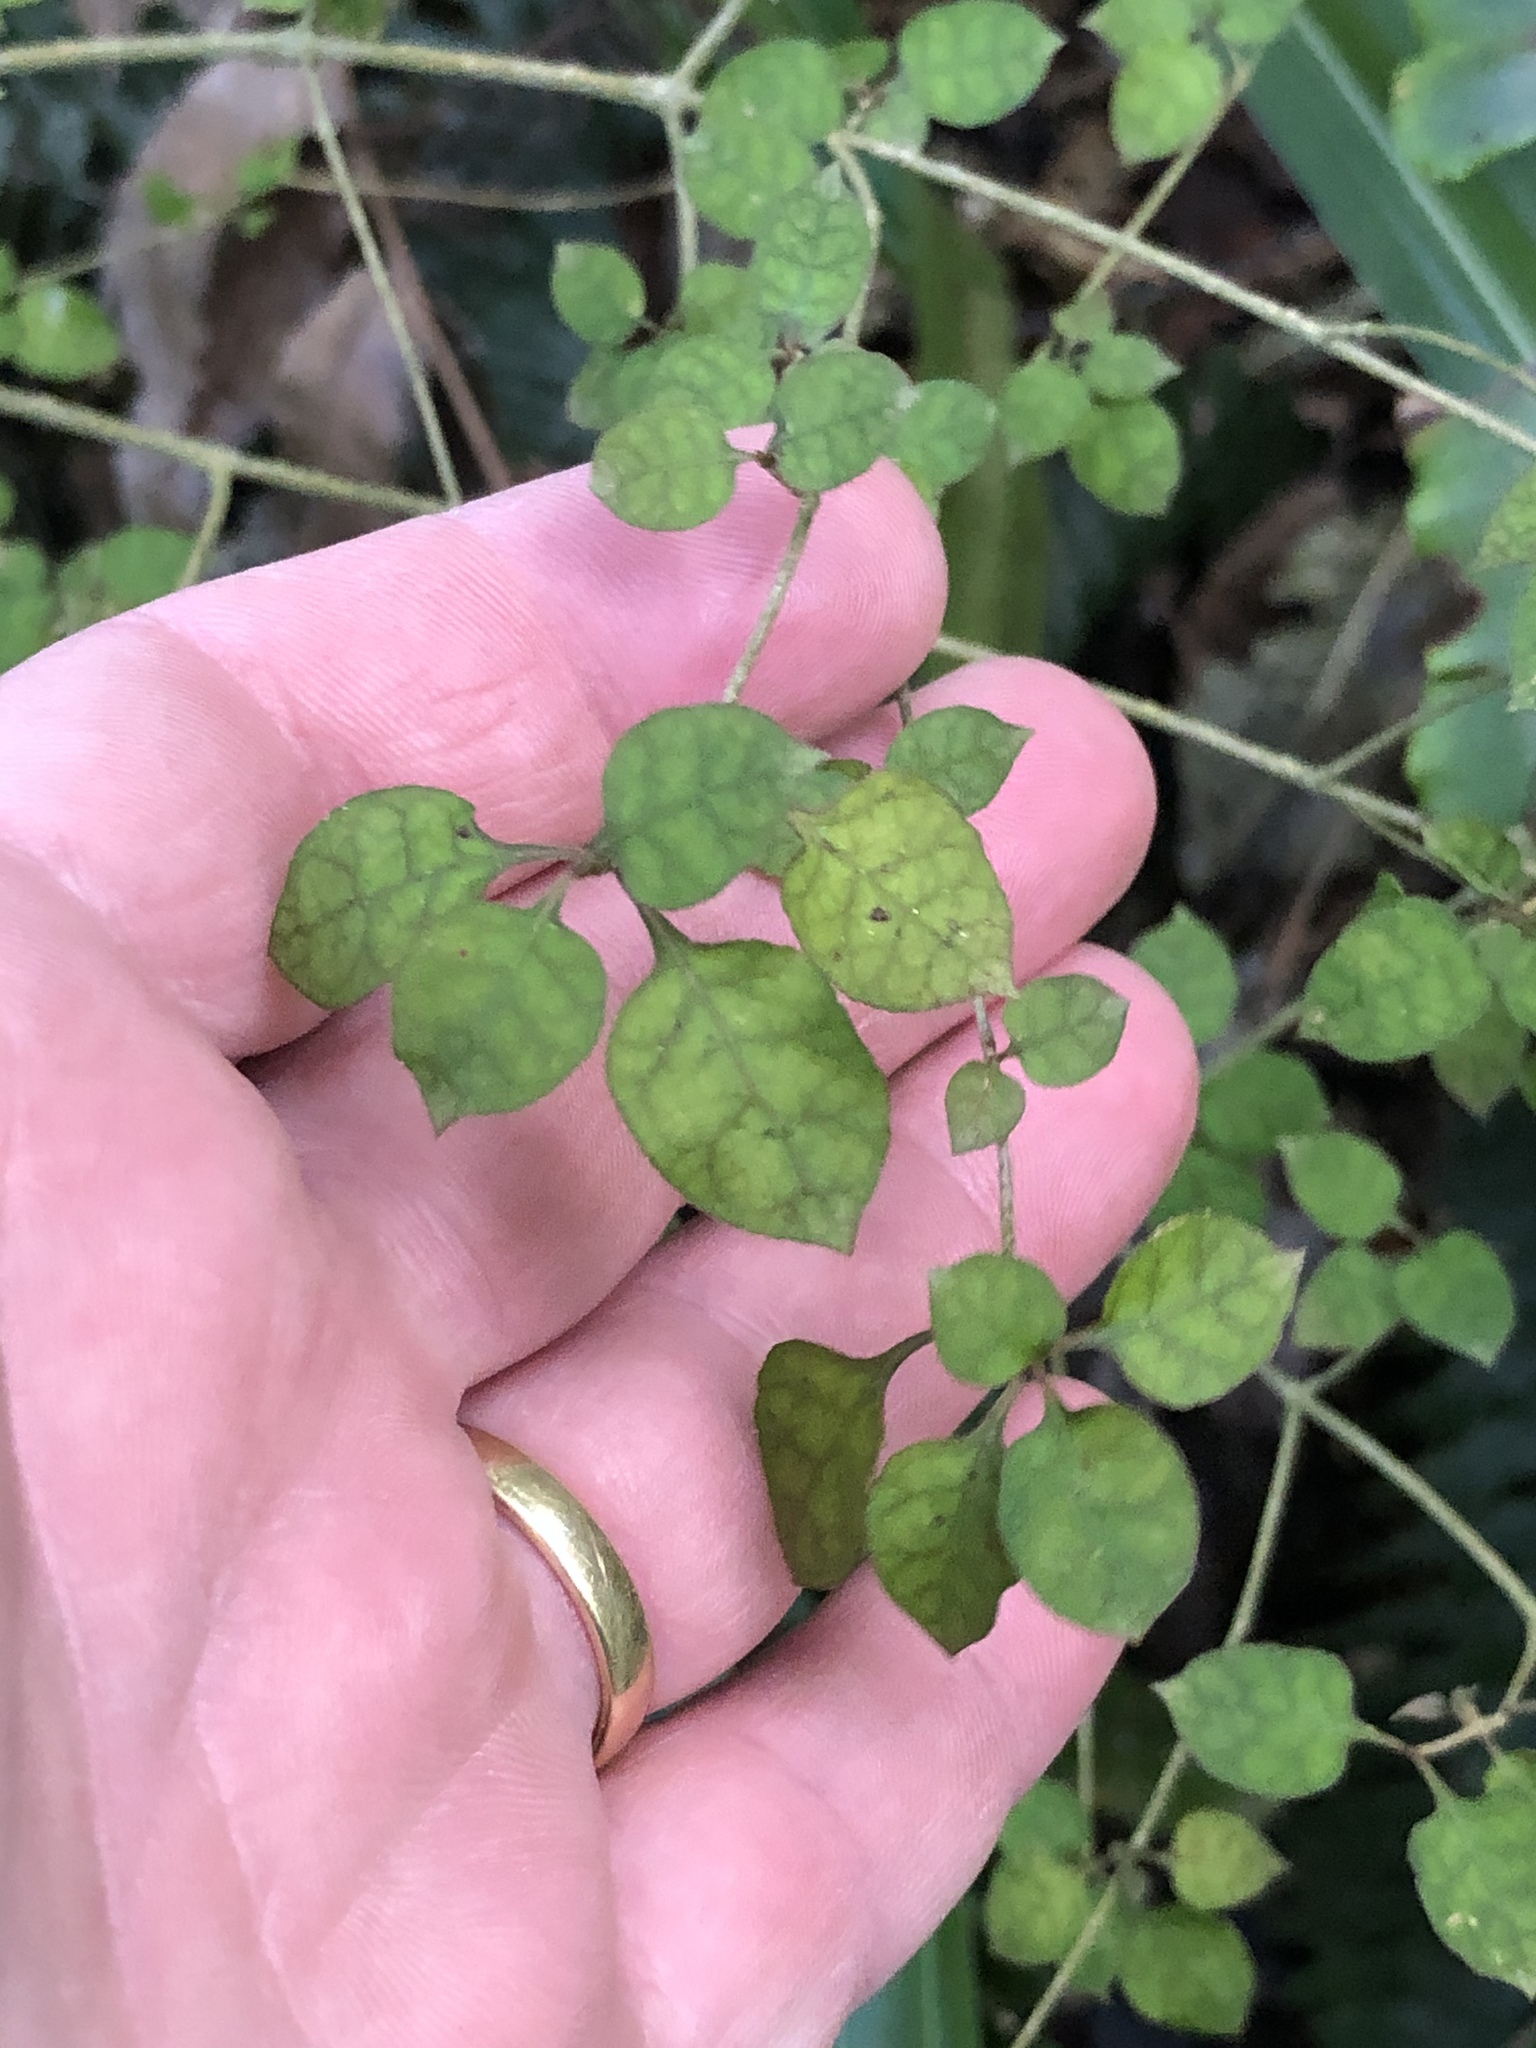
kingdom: Plantae
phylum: Tracheophyta
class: Magnoliopsida
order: Gentianales
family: Rubiaceae
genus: Coprosma
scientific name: Coprosma areolata
